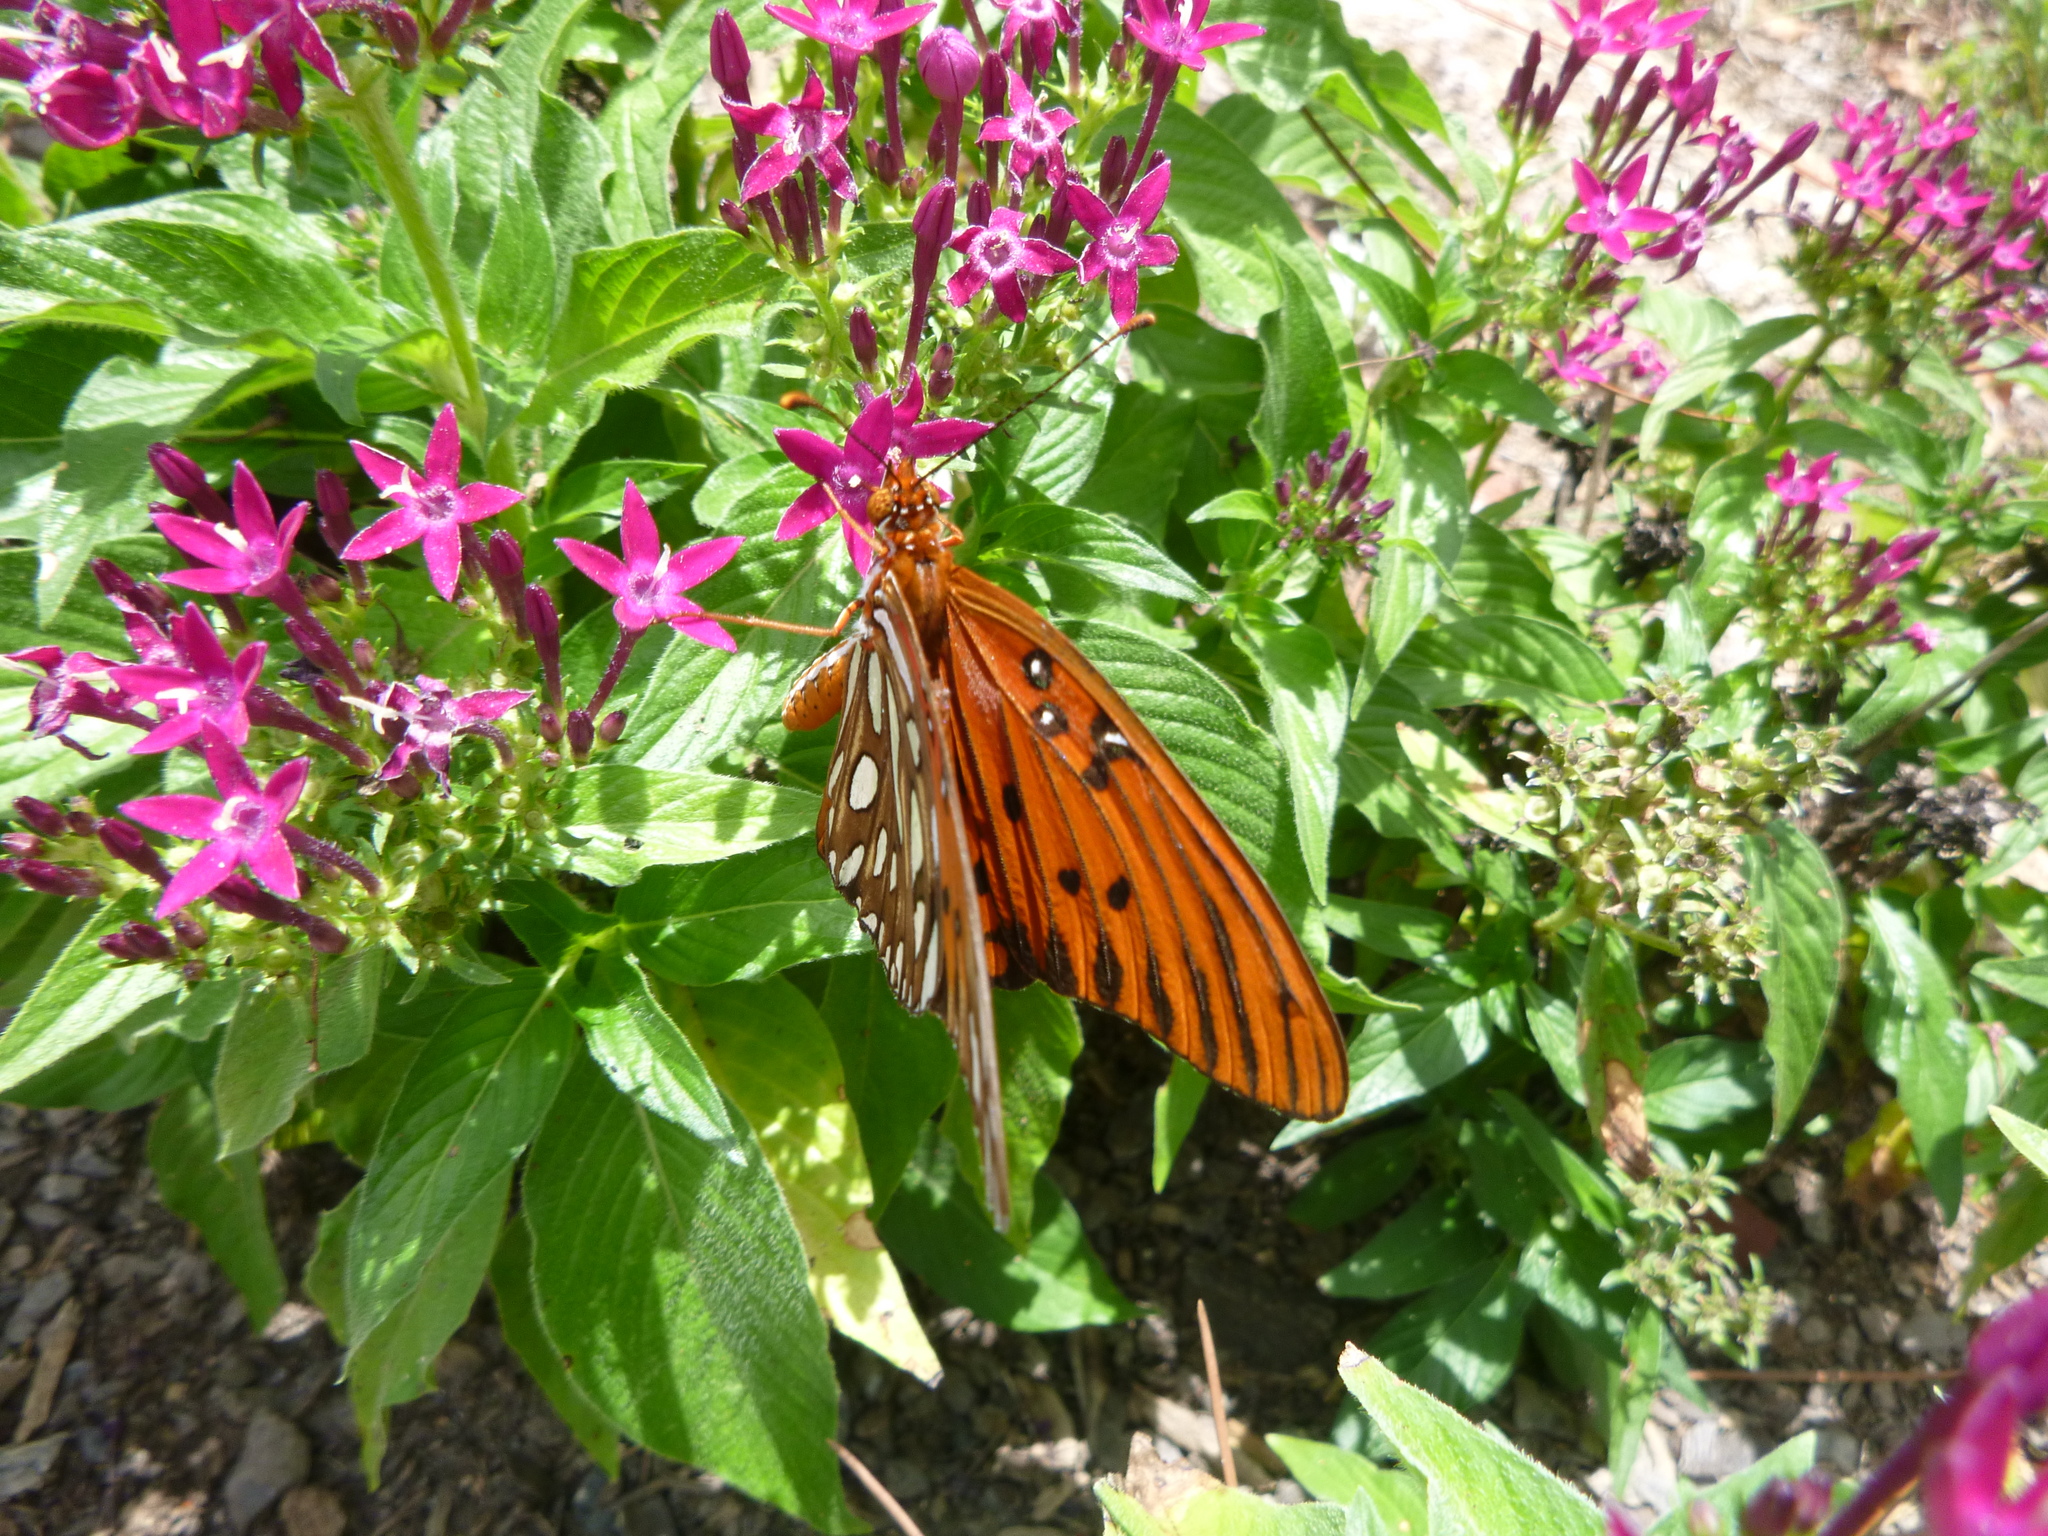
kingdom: Animalia
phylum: Arthropoda
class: Insecta
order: Lepidoptera
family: Nymphalidae
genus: Dione
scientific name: Dione vanillae
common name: Gulf fritillary
